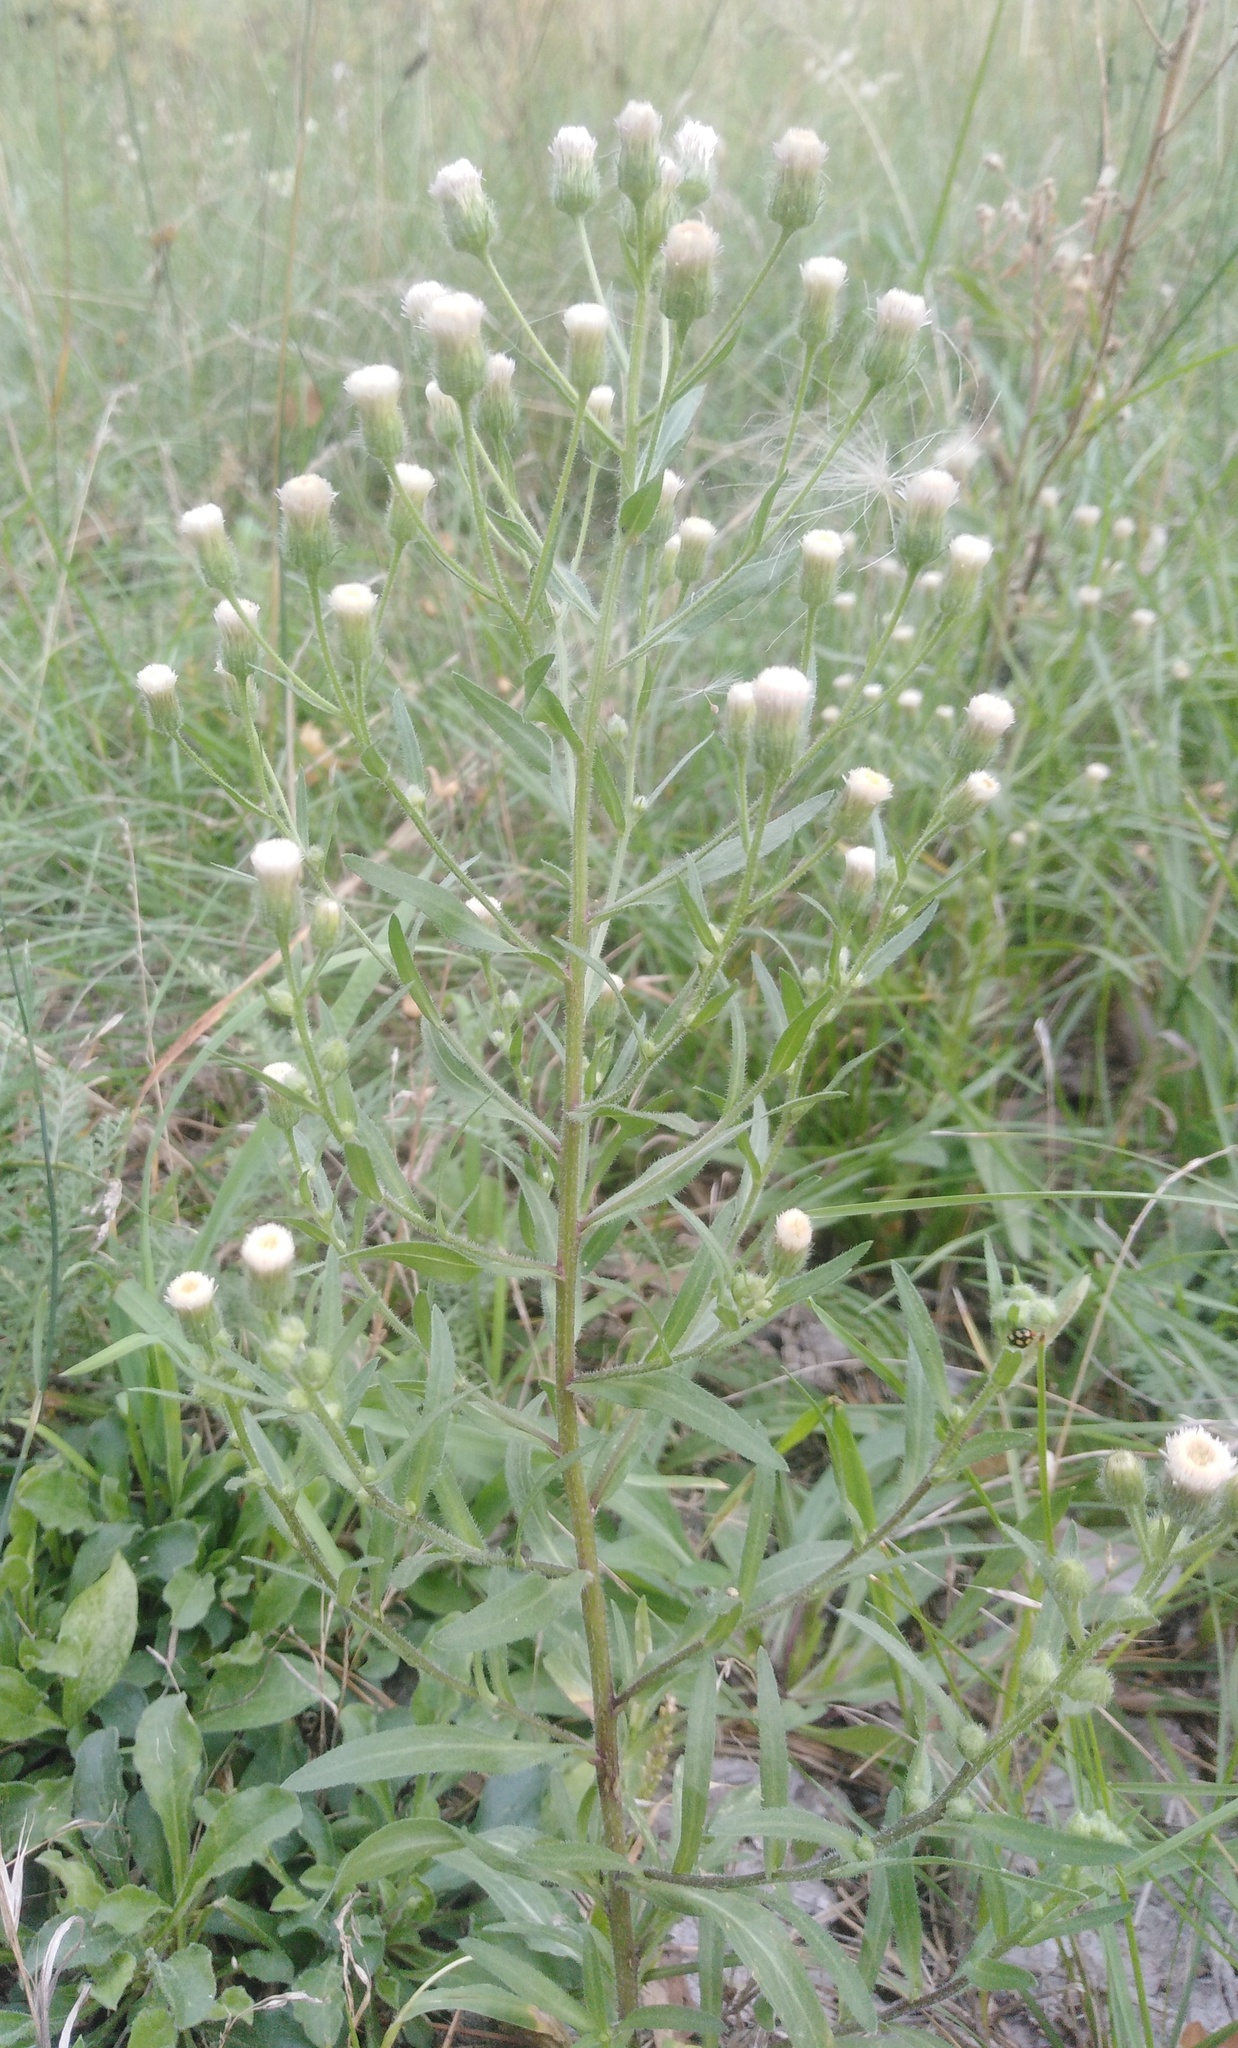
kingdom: Plantae
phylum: Tracheophyta
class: Magnoliopsida
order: Asterales
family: Asteraceae
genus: Erigeron
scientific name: Erigeron acris
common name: Blue fleabane
